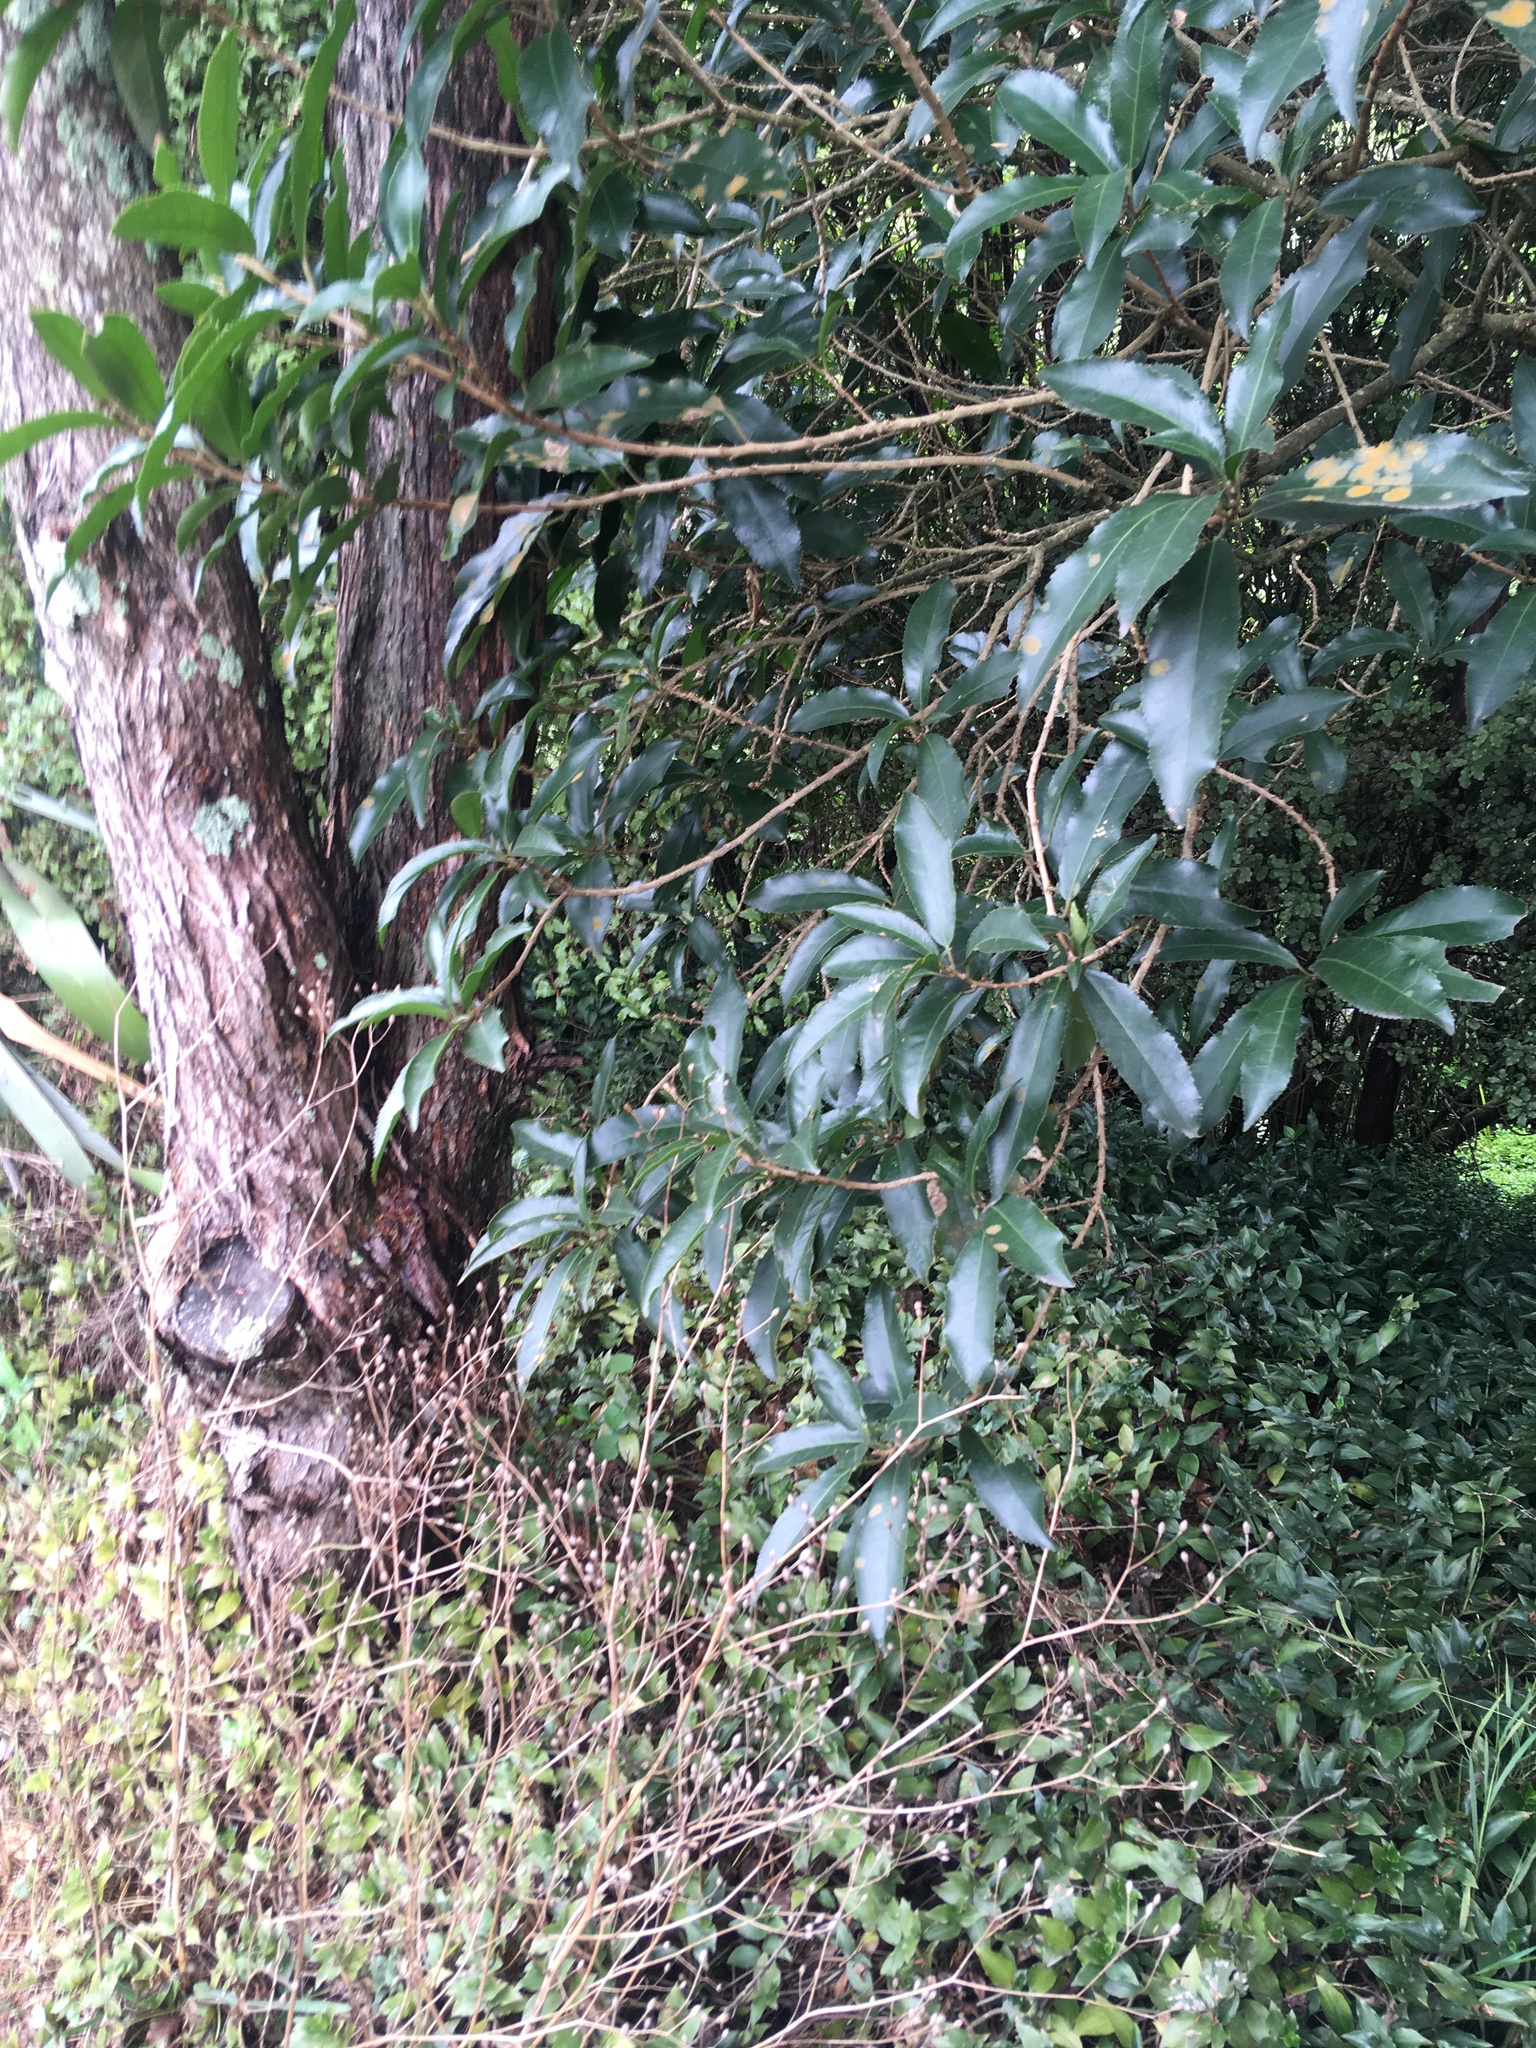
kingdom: Plantae
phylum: Tracheophyta
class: Magnoliopsida
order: Asterales
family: Asteraceae
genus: Lapsana
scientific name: Lapsana communis
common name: Nipplewort
